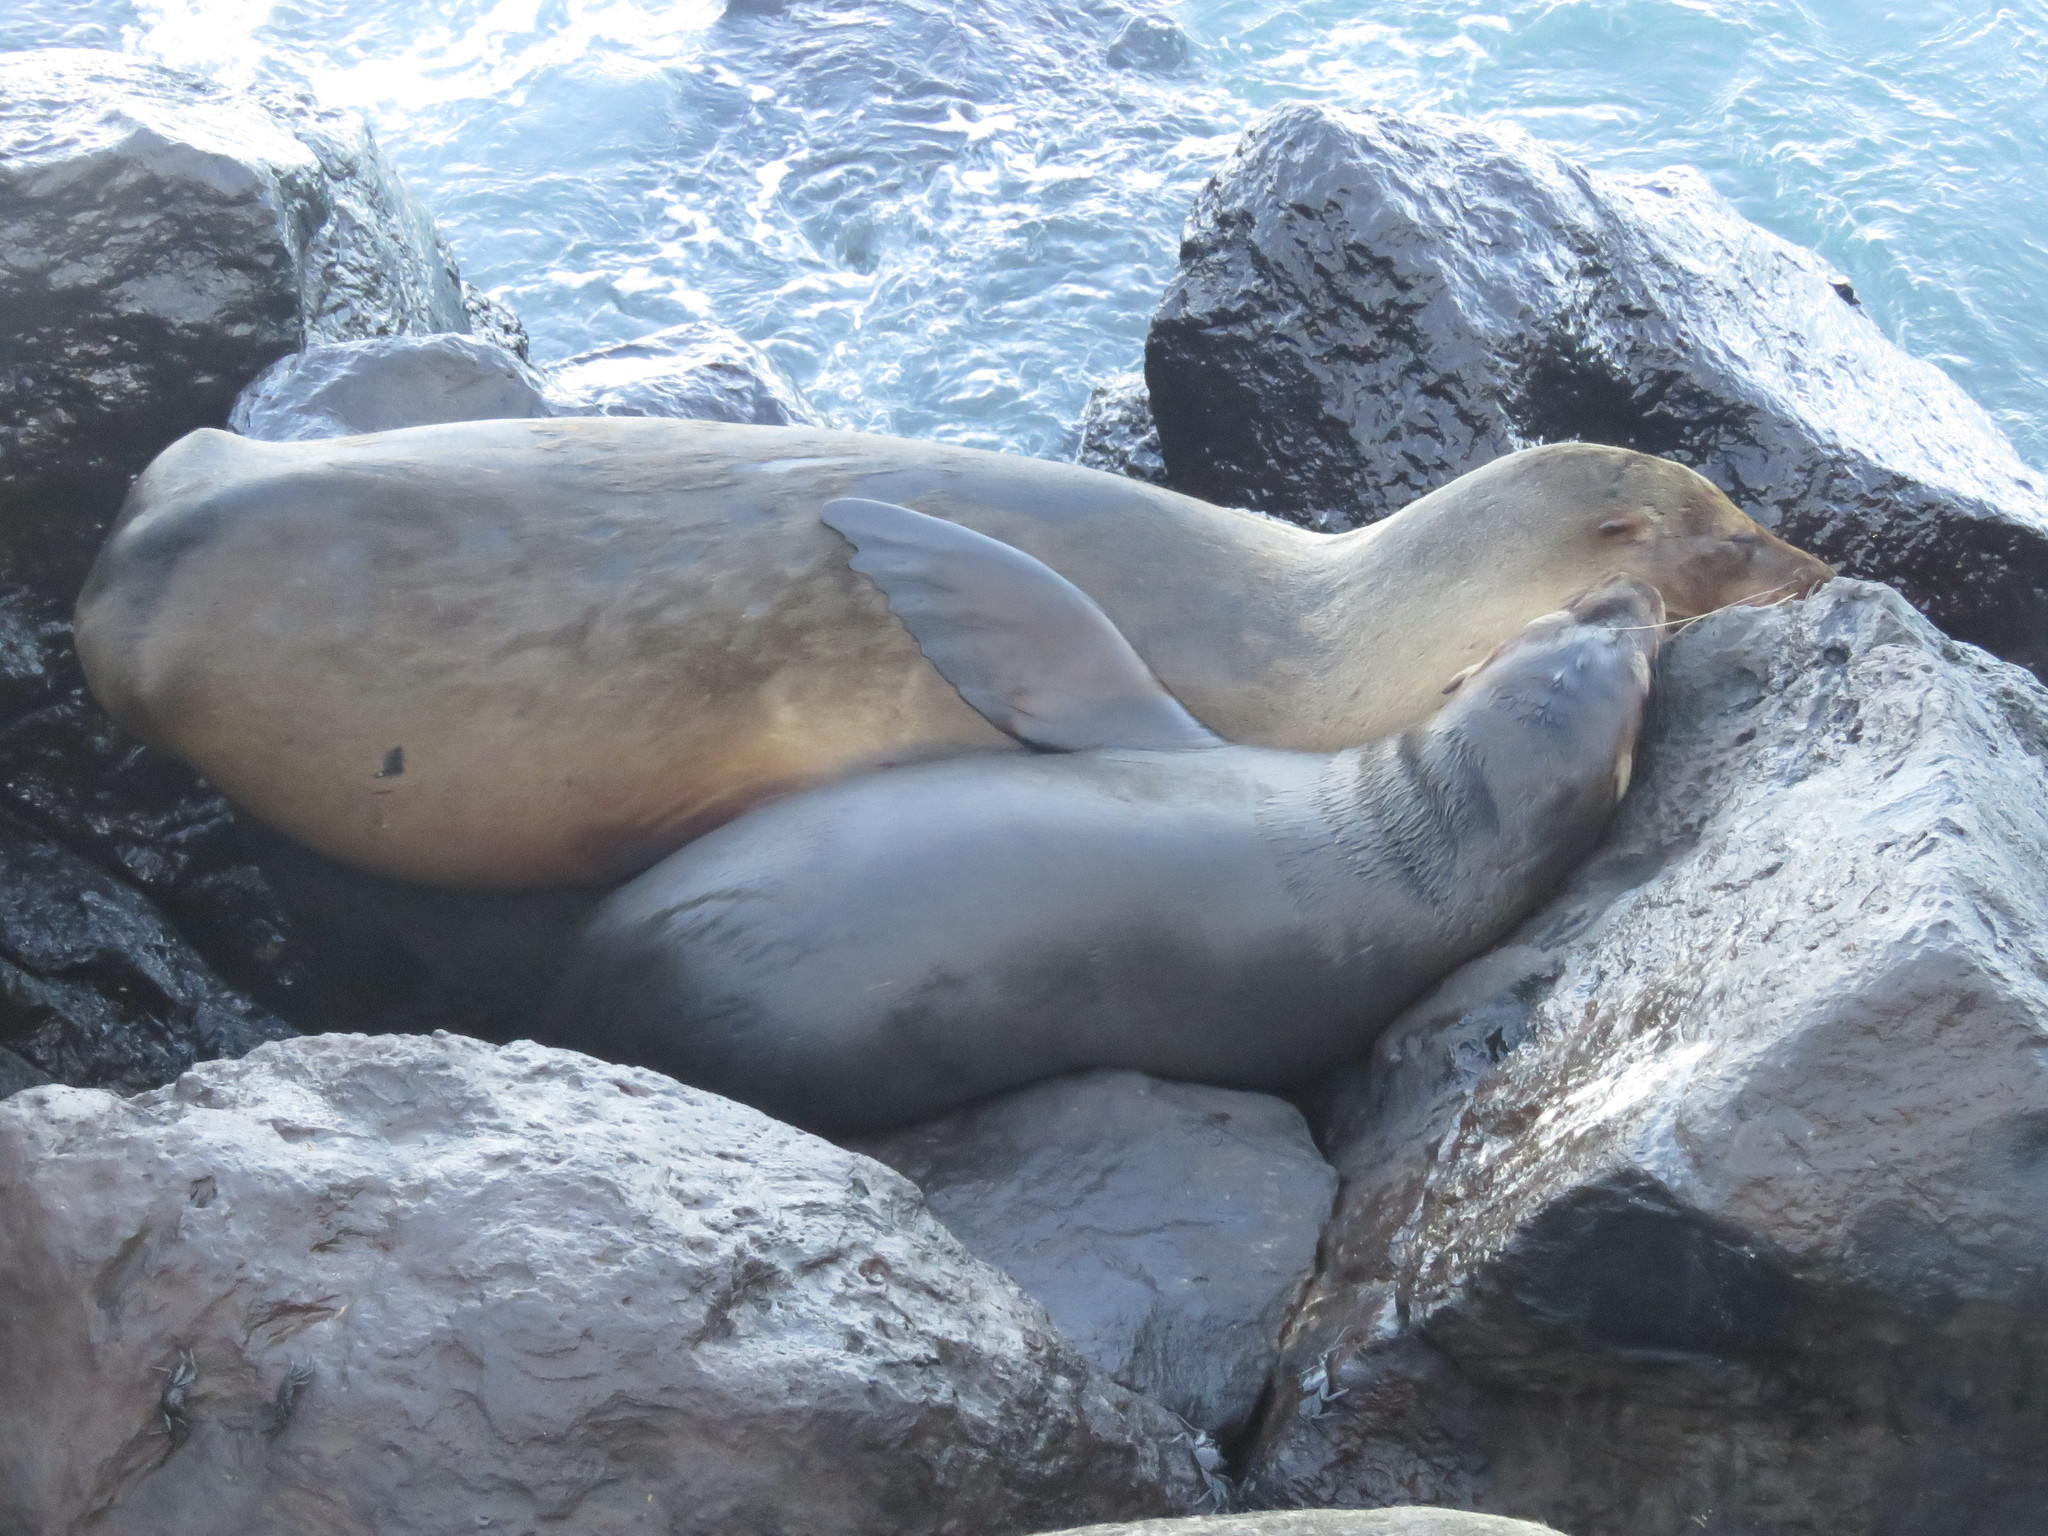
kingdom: Animalia
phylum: Chordata
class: Mammalia
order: Carnivora
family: Otariidae
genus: Zalophus
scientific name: Zalophus wollebaeki
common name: Galapagos sea lion
